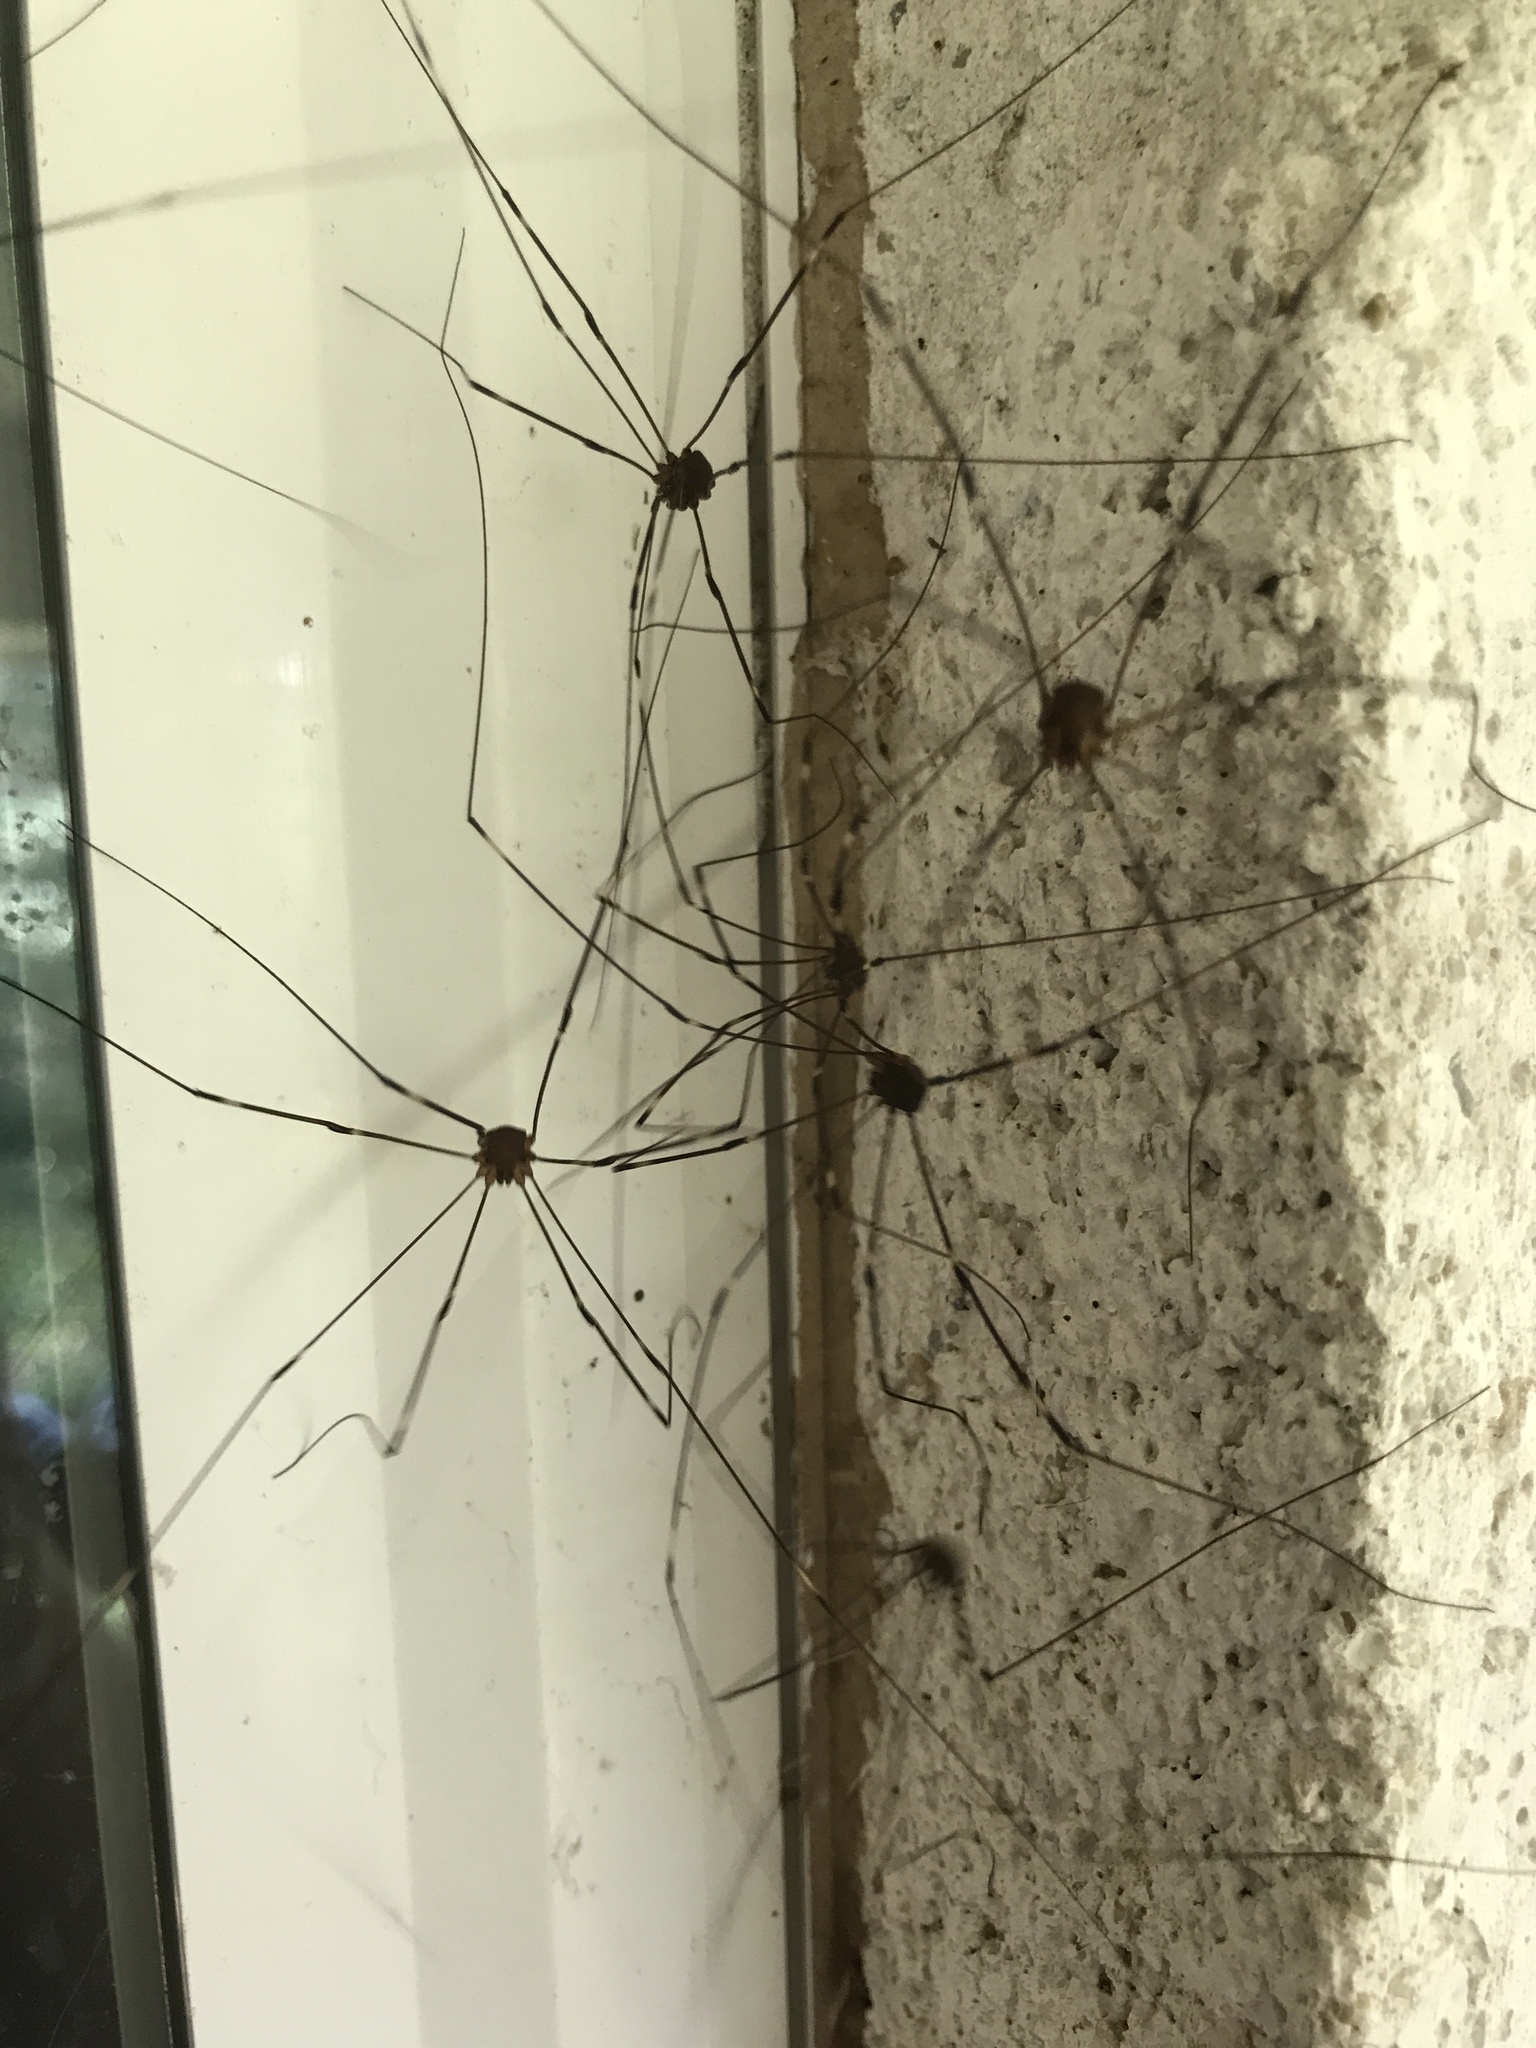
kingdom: Animalia
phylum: Arthropoda
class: Arachnida
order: Opiliones
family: Sclerosomatidae
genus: Leiobunum
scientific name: Leiobunum townsendi
